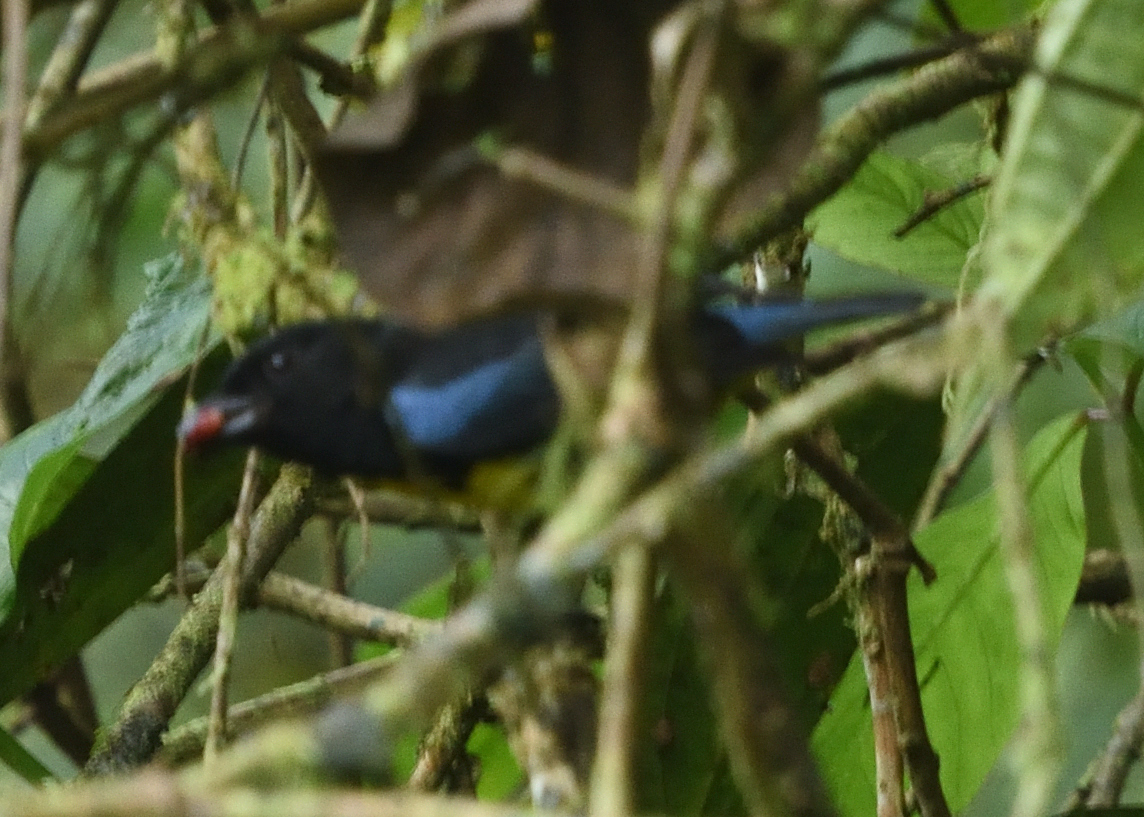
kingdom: Animalia
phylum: Chordata
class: Aves
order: Passeriformes
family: Thraupidae
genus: Bangsia
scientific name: Bangsia melanochlamys
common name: Black-and-gold tanager
